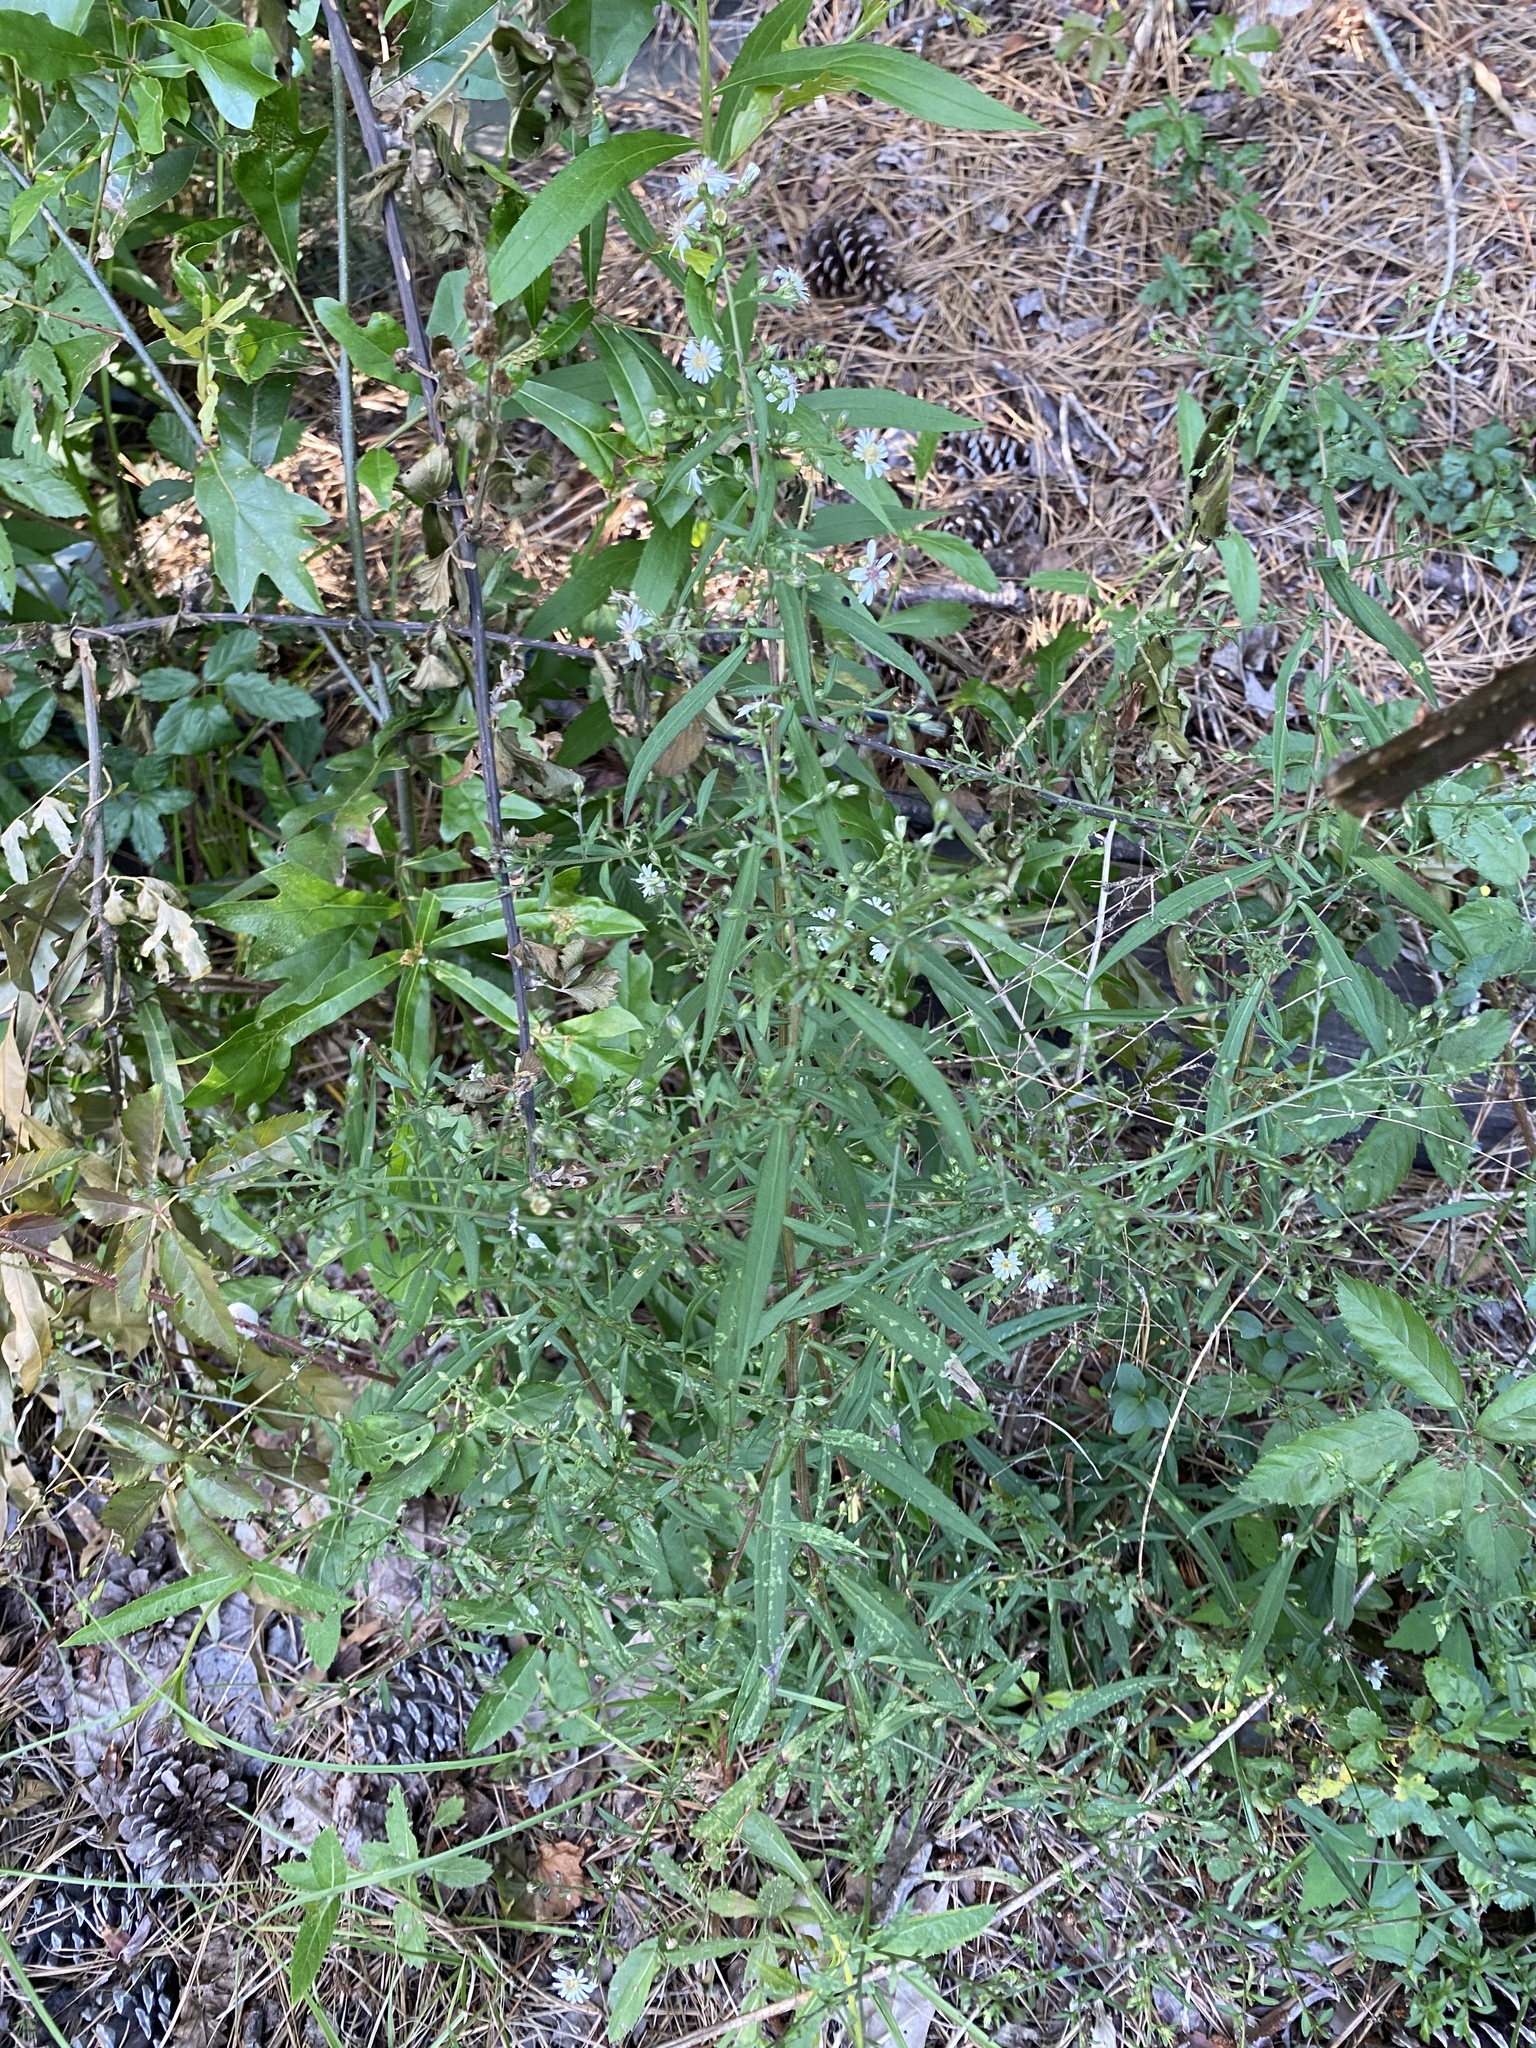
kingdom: Plantae
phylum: Tracheophyta
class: Magnoliopsida
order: Asterales
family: Asteraceae
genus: Symphyotrichum
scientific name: Symphyotrichum lateriflorum
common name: Calico aster
